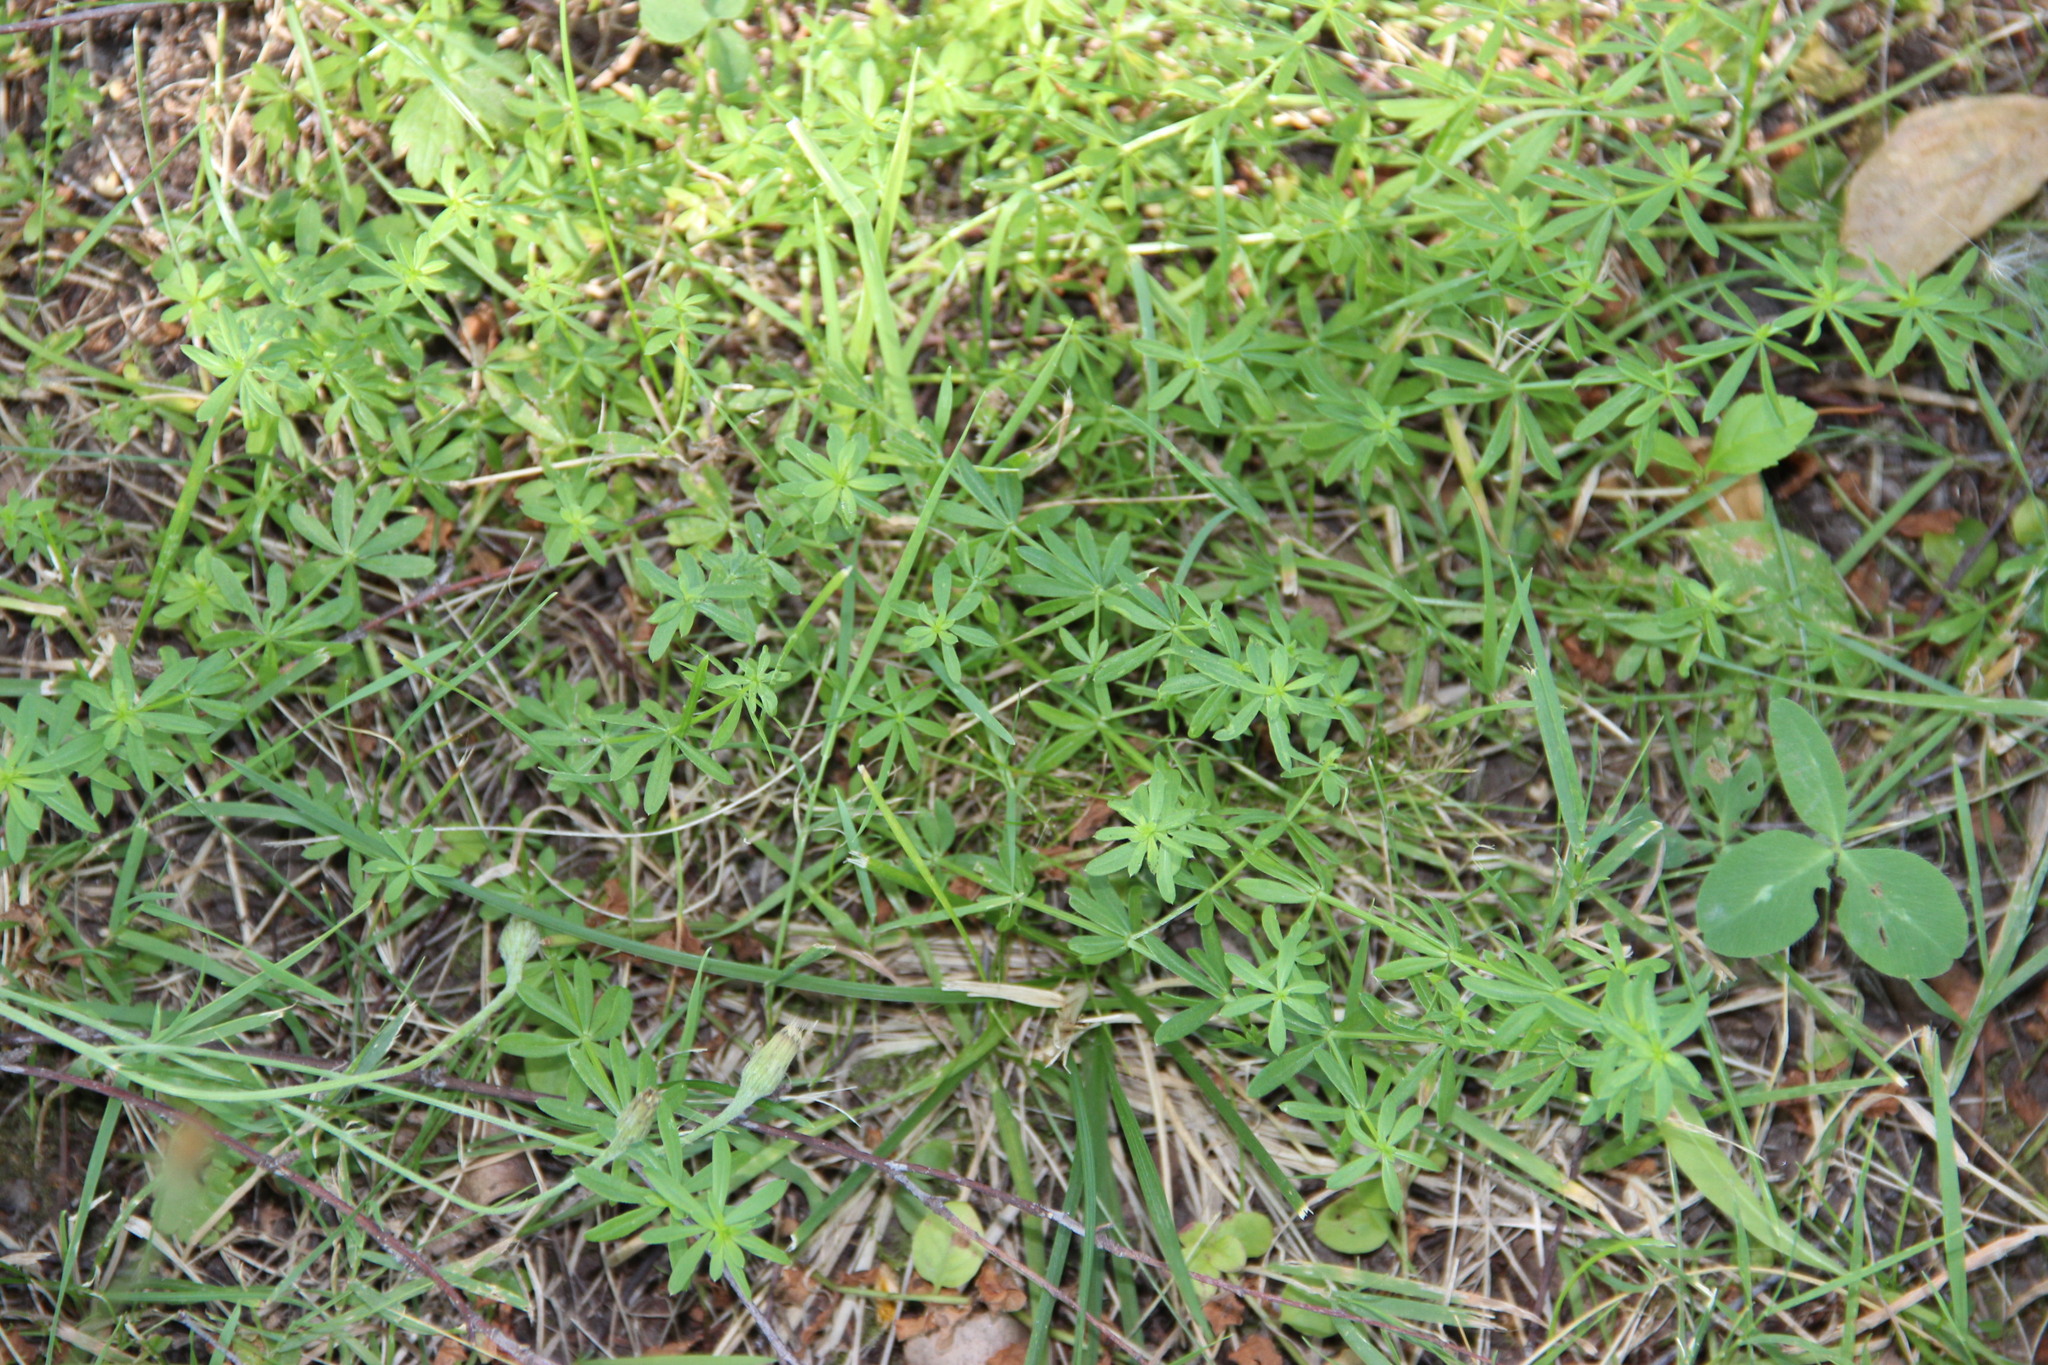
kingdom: Plantae
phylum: Tracheophyta
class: Magnoliopsida
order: Gentianales
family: Rubiaceae
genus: Galium
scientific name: Galium mollugo
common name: Hedge bedstraw
